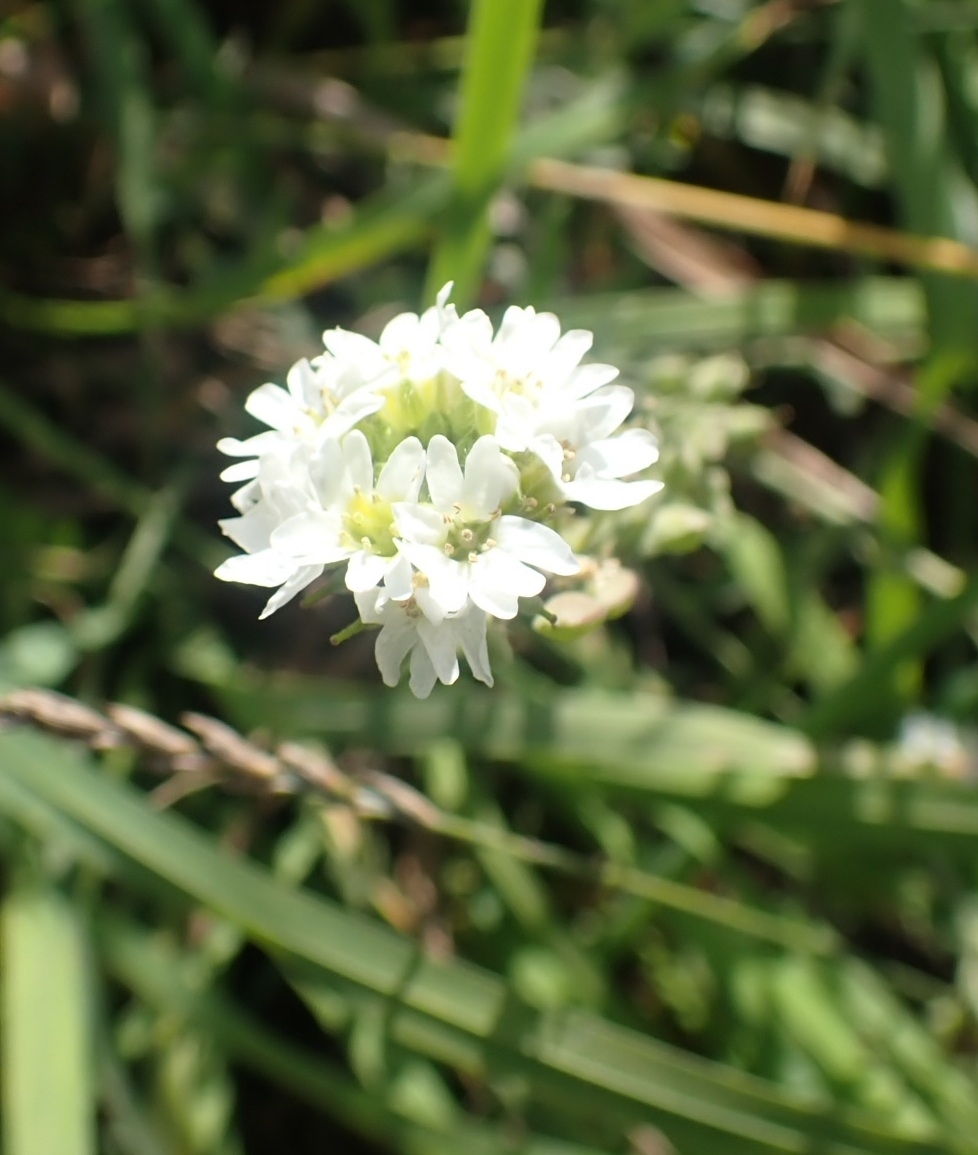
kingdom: Plantae
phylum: Tracheophyta
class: Magnoliopsida
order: Brassicales
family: Brassicaceae
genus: Berteroa
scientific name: Berteroa incana
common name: Hoary alison
